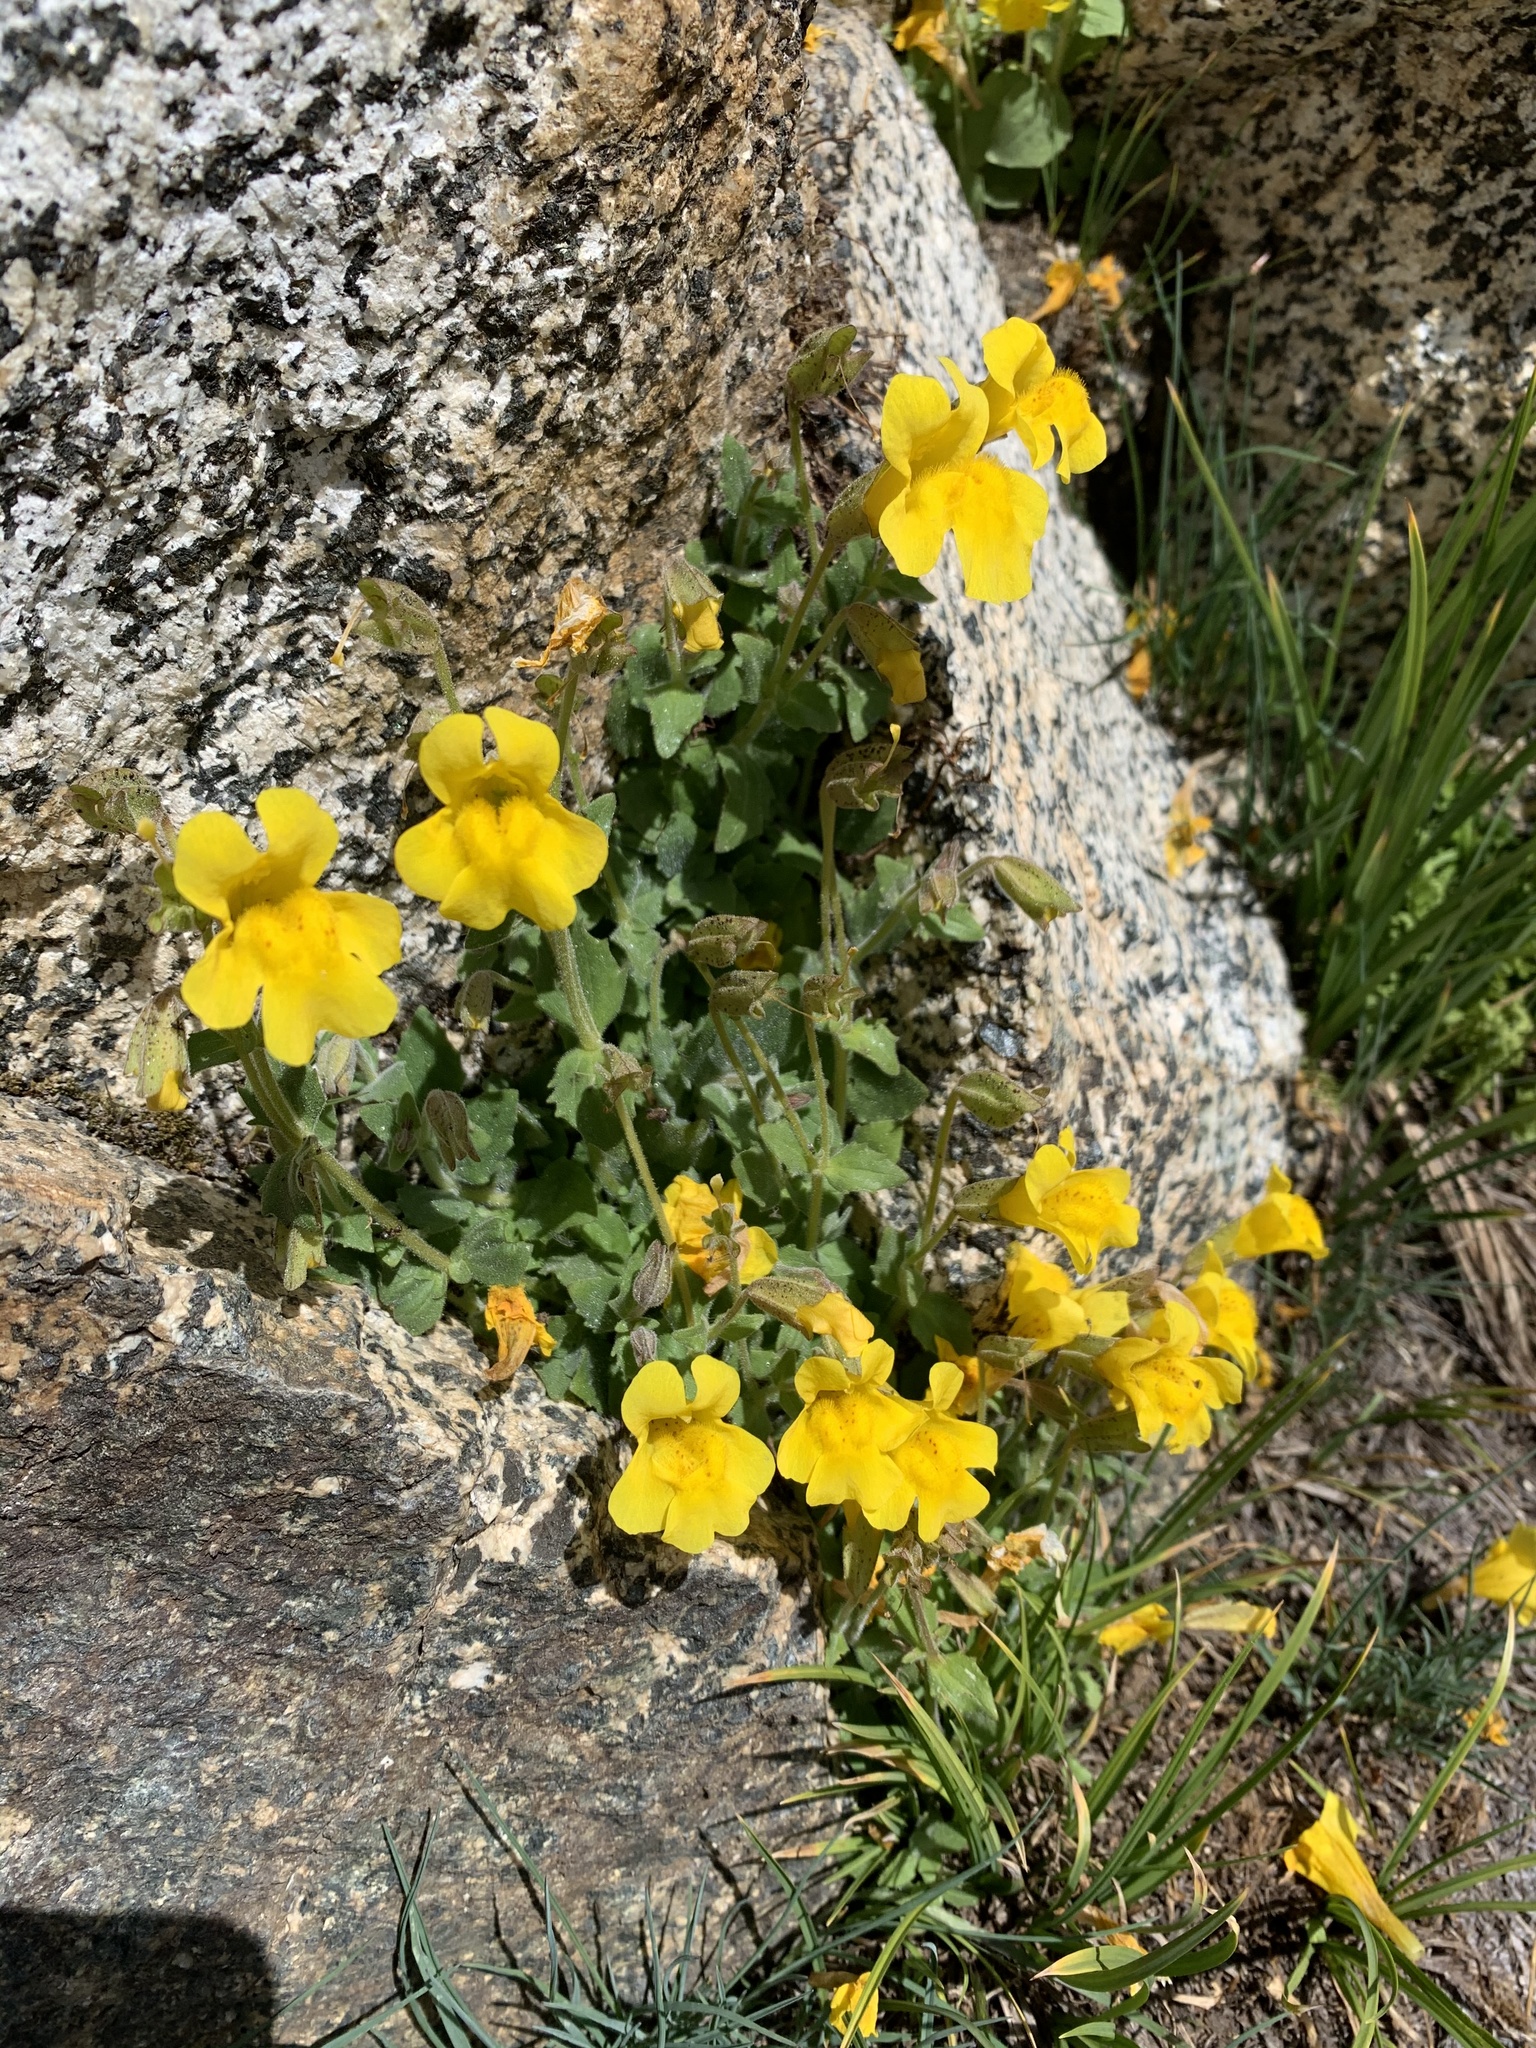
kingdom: Plantae
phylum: Tracheophyta
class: Magnoliopsida
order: Lamiales
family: Phrymaceae
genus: Erythranthe
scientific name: Erythranthe tilingii
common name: Subalpine monkey-flower
